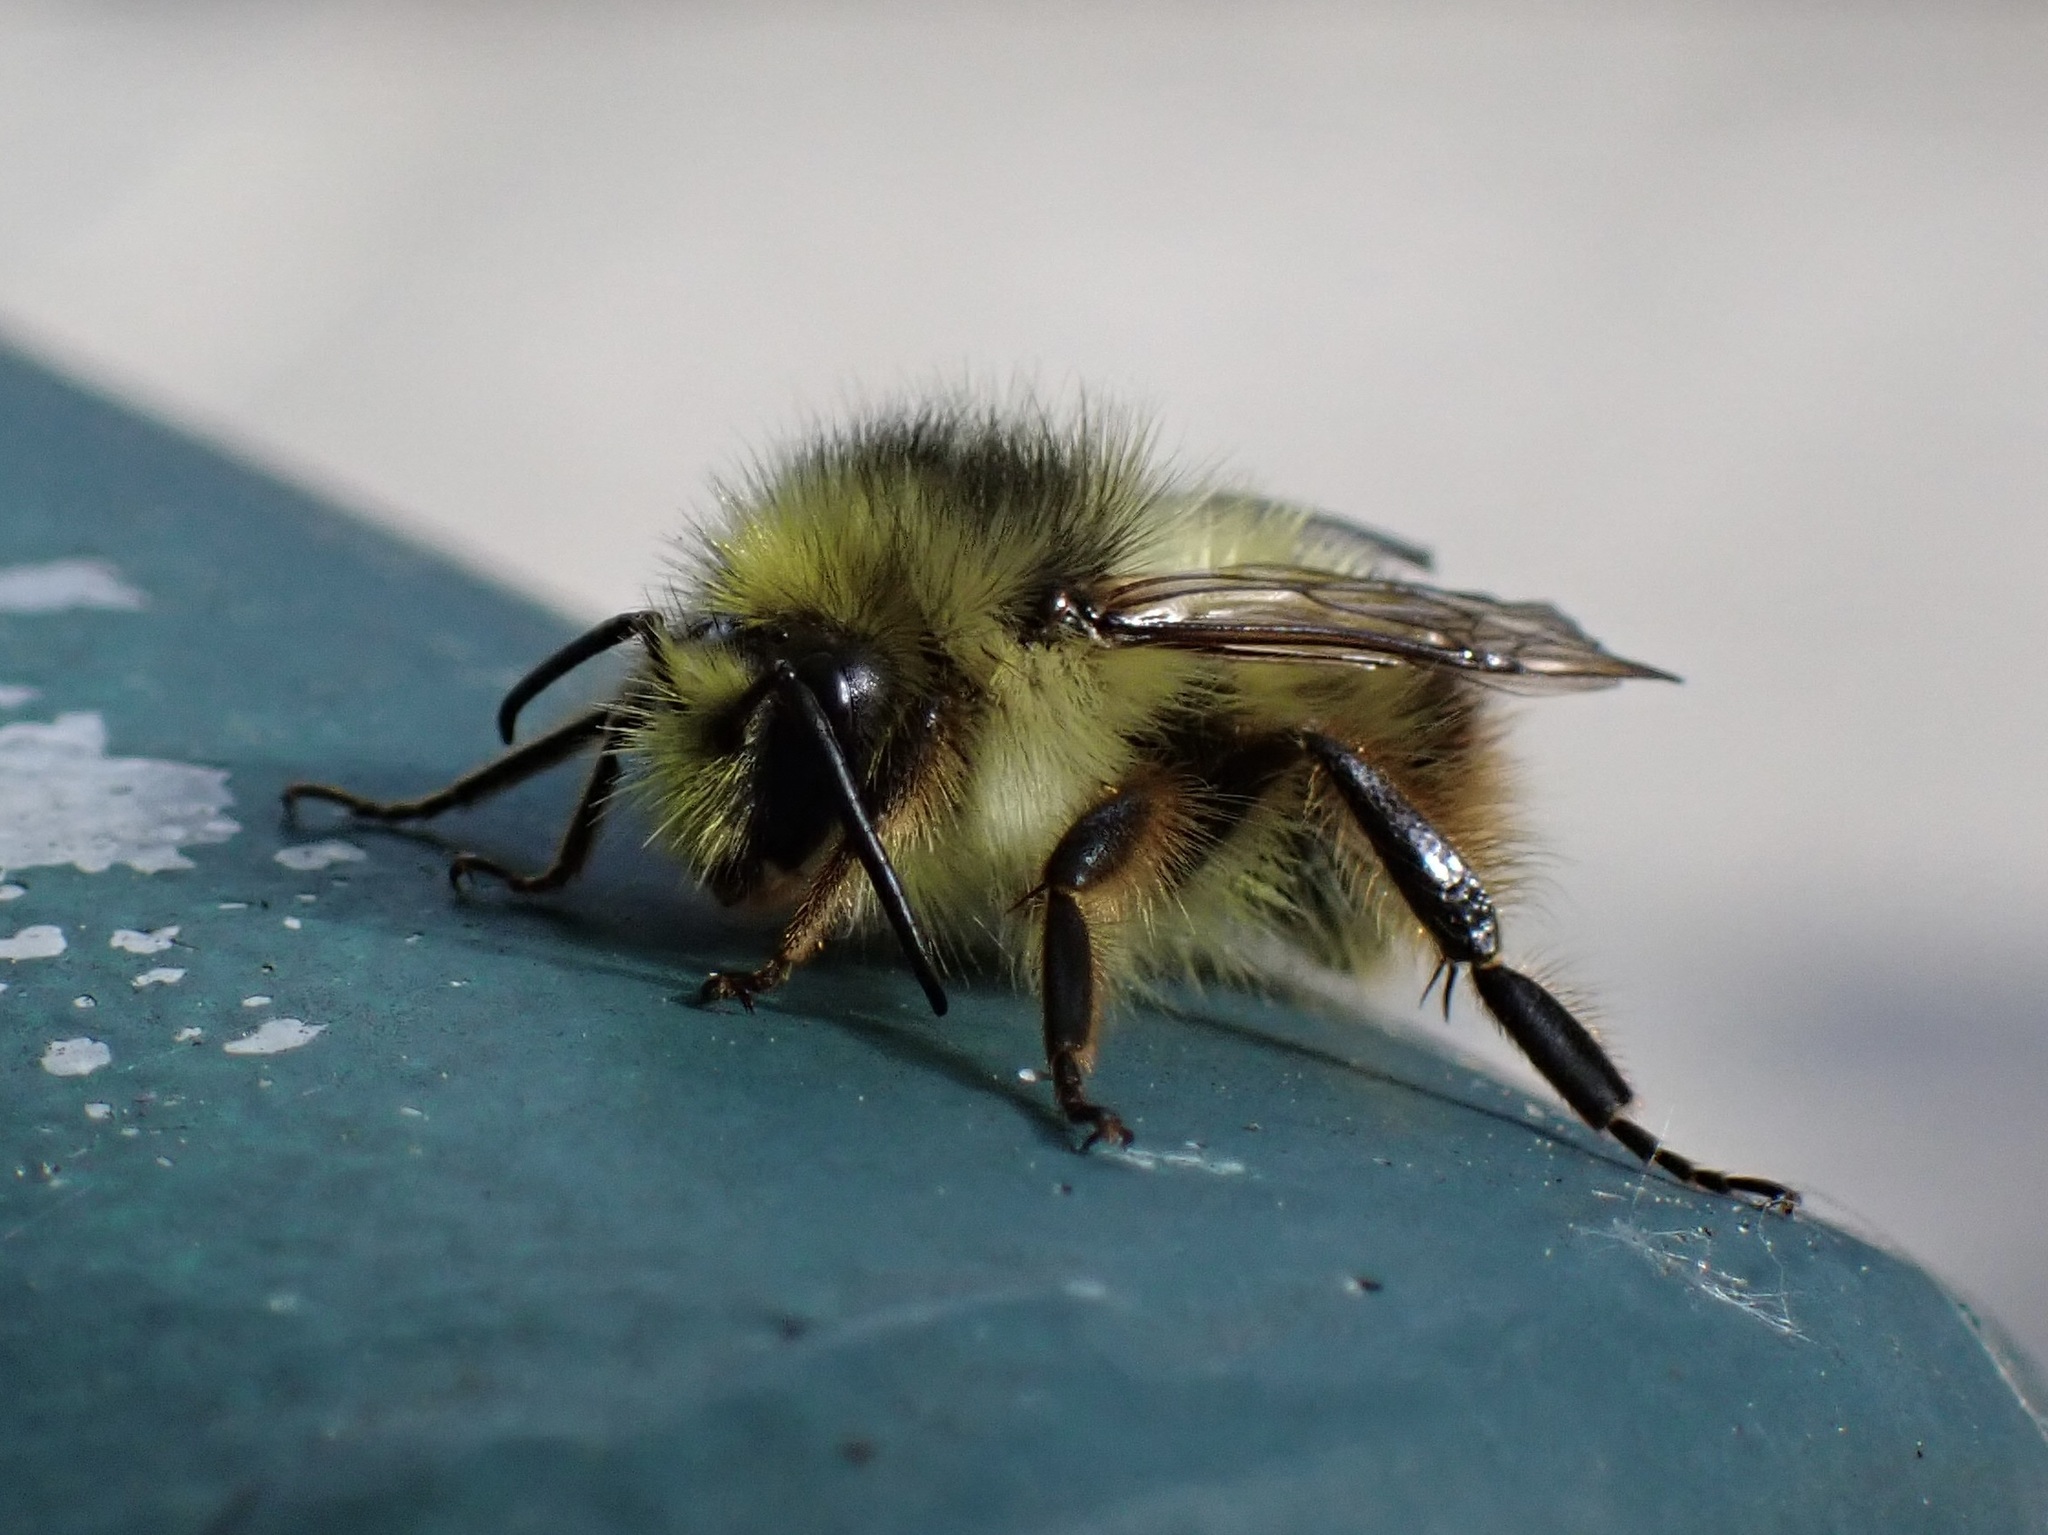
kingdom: Animalia
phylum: Arthropoda
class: Insecta
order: Hymenoptera
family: Apidae
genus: Bombus
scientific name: Bombus mixtus
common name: Fuzzy-horned bumble bee
